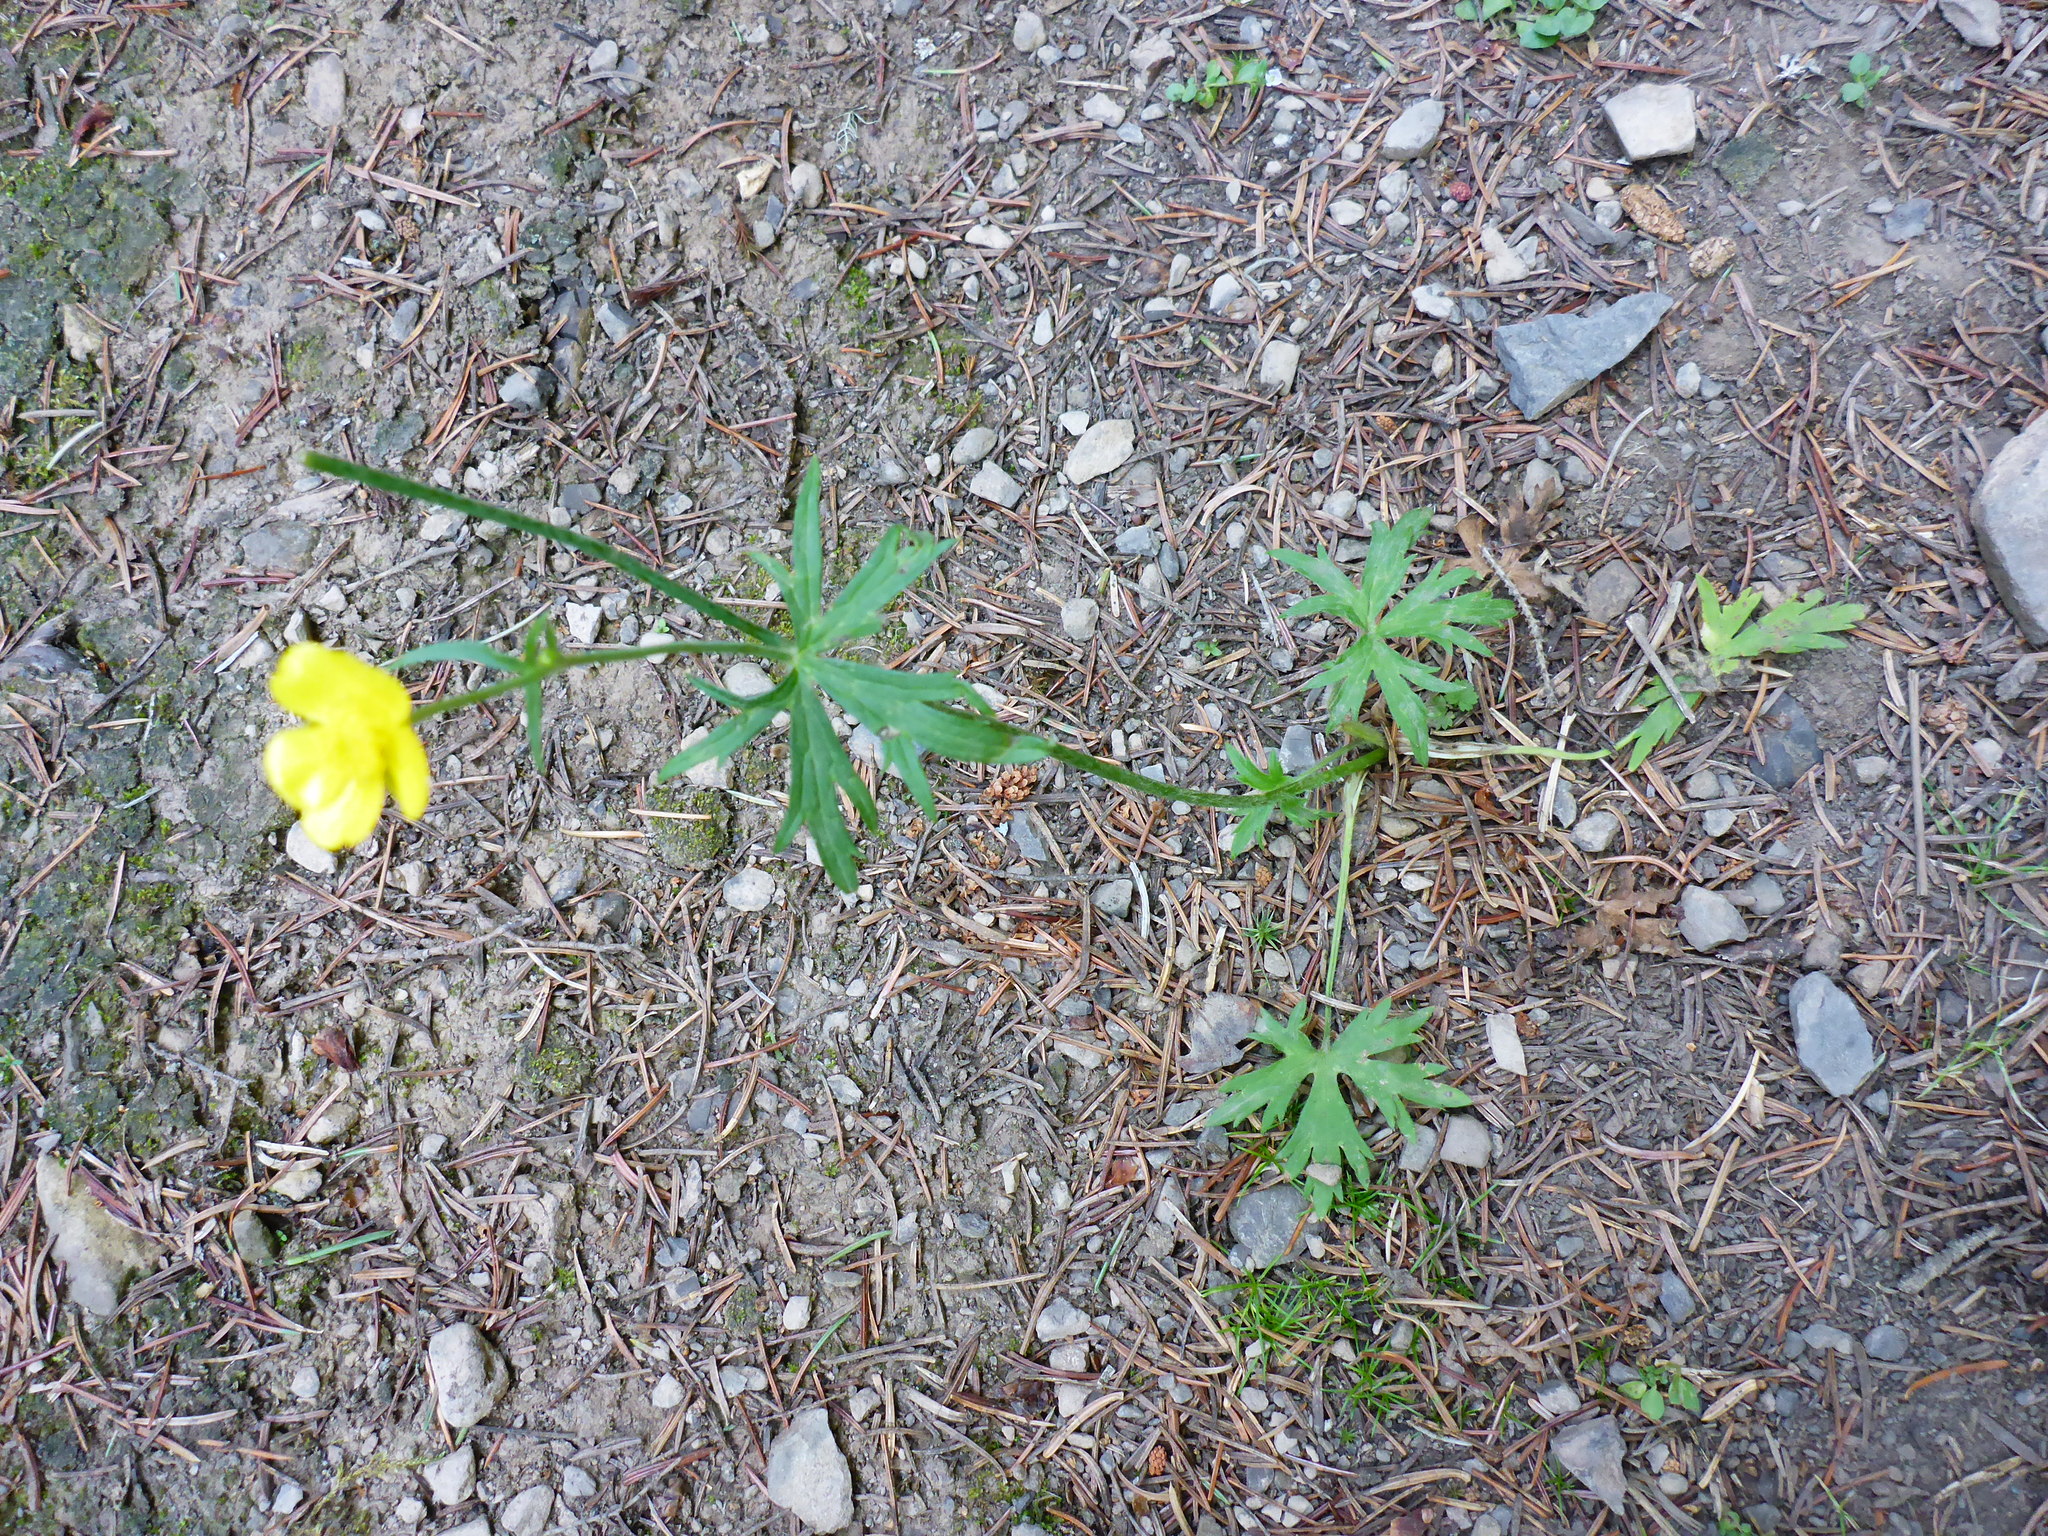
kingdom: Plantae
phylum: Tracheophyta
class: Magnoliopsida
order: Ranunculales
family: Ranunculaceae
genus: Ranunculus
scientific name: Ranunculus acris
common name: Meadow buttercup
